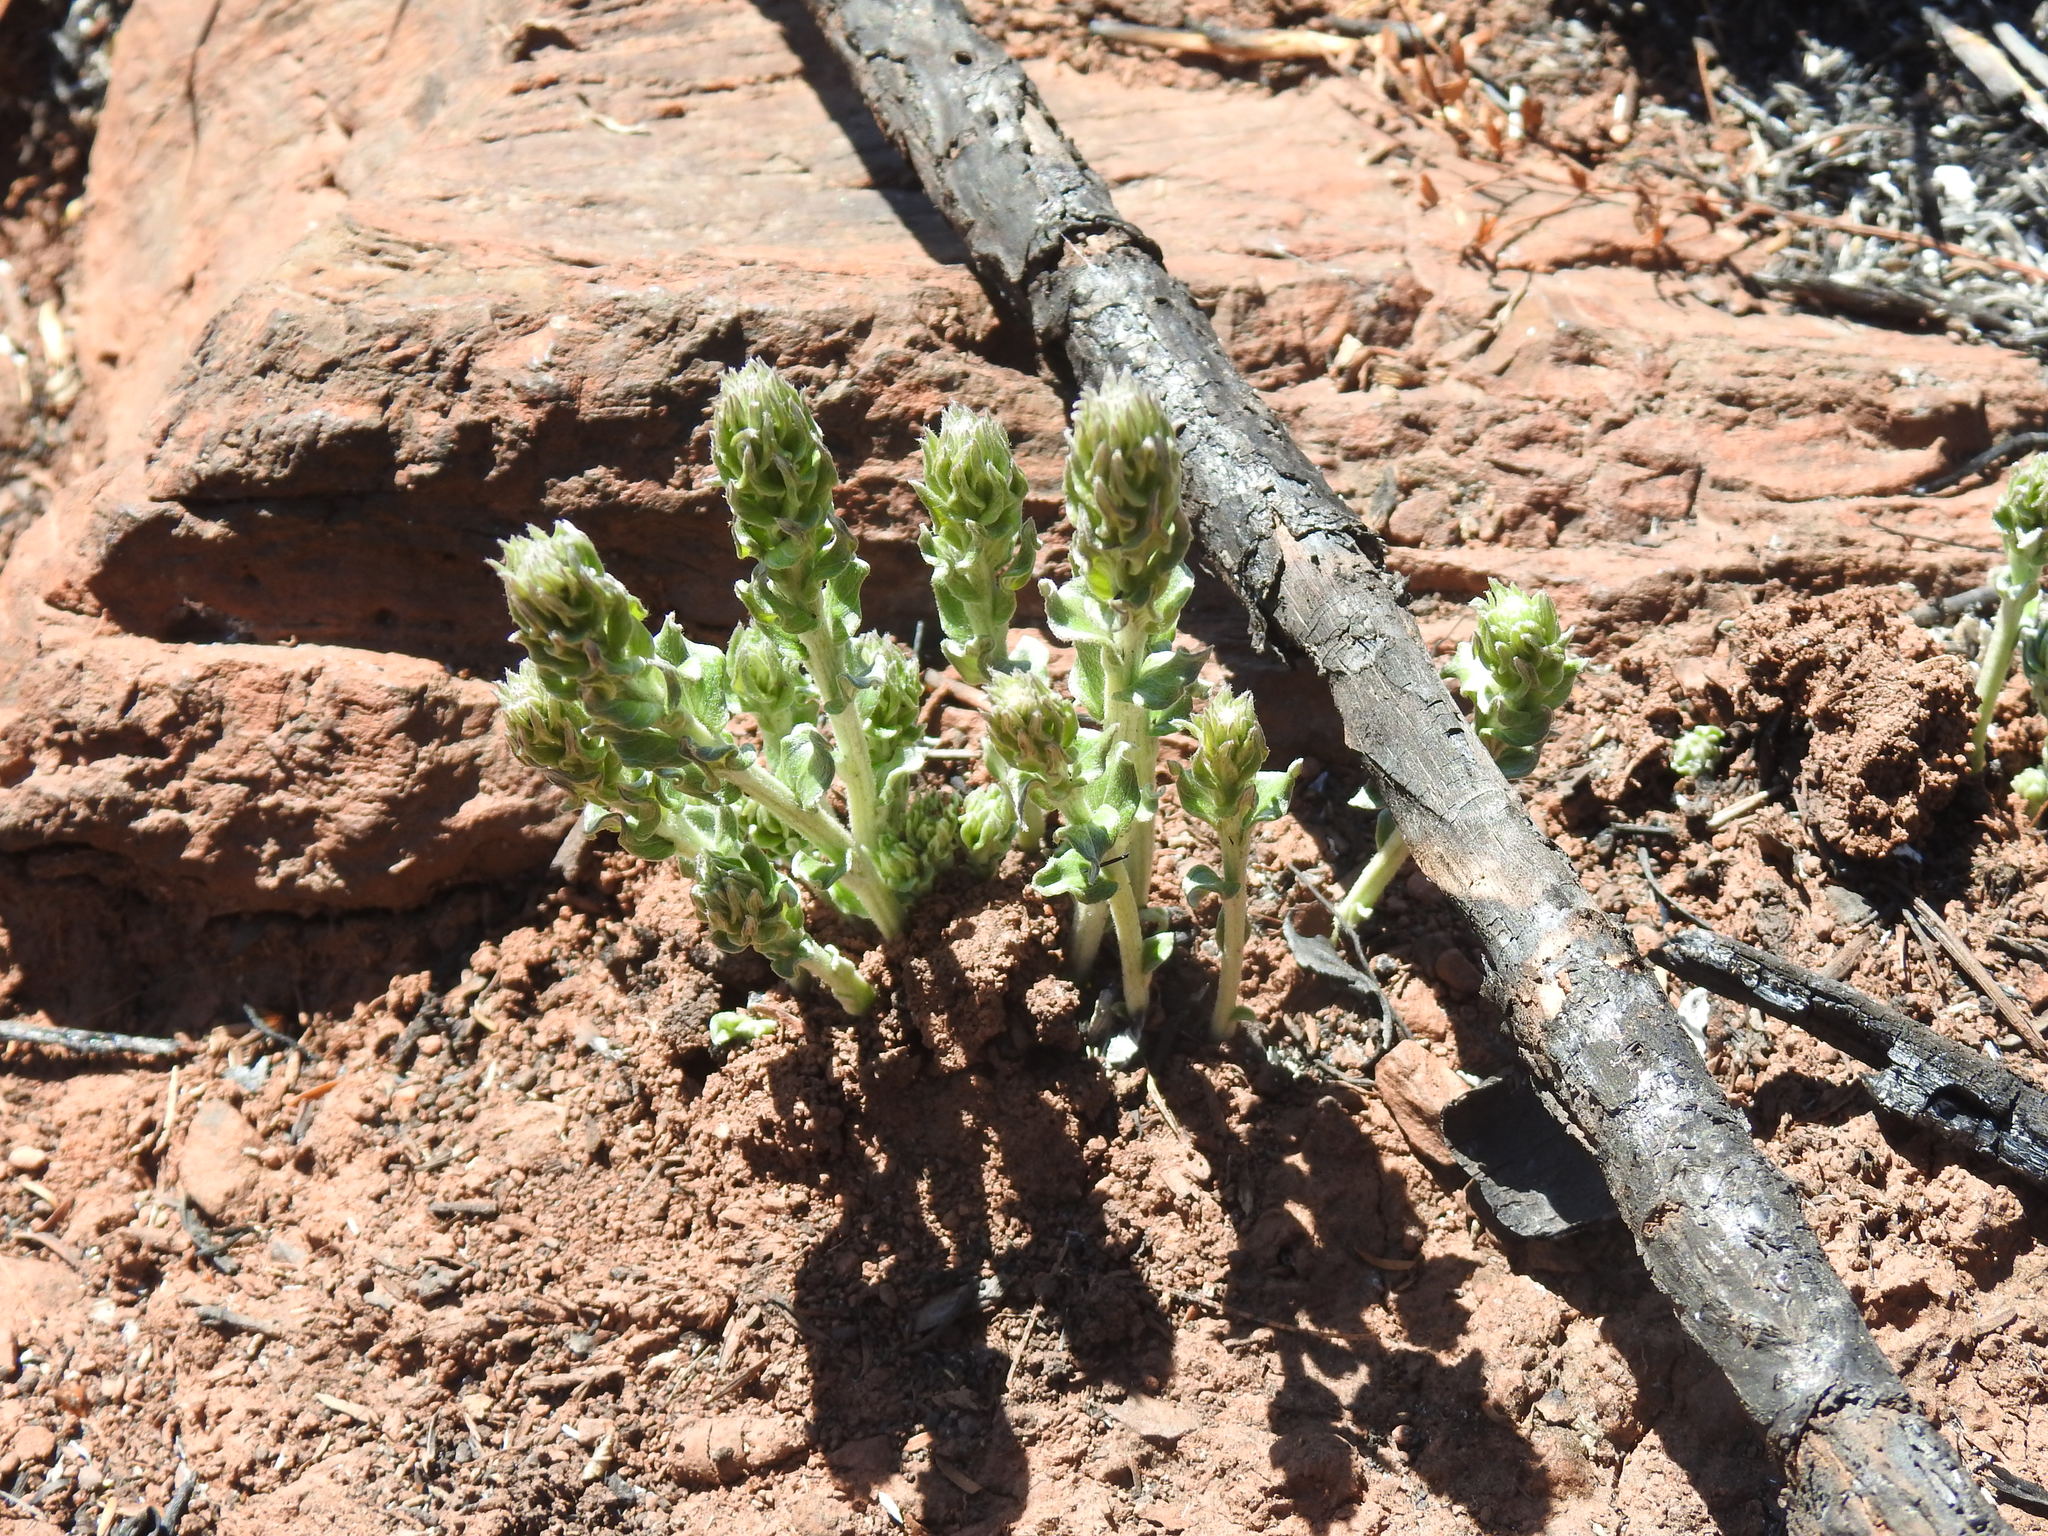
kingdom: Plantae
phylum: Tracheophyta
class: Magnoliopsida
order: Asterales
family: Asteraceae
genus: Hilliardiella
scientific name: Hilliardiella oligocephala
